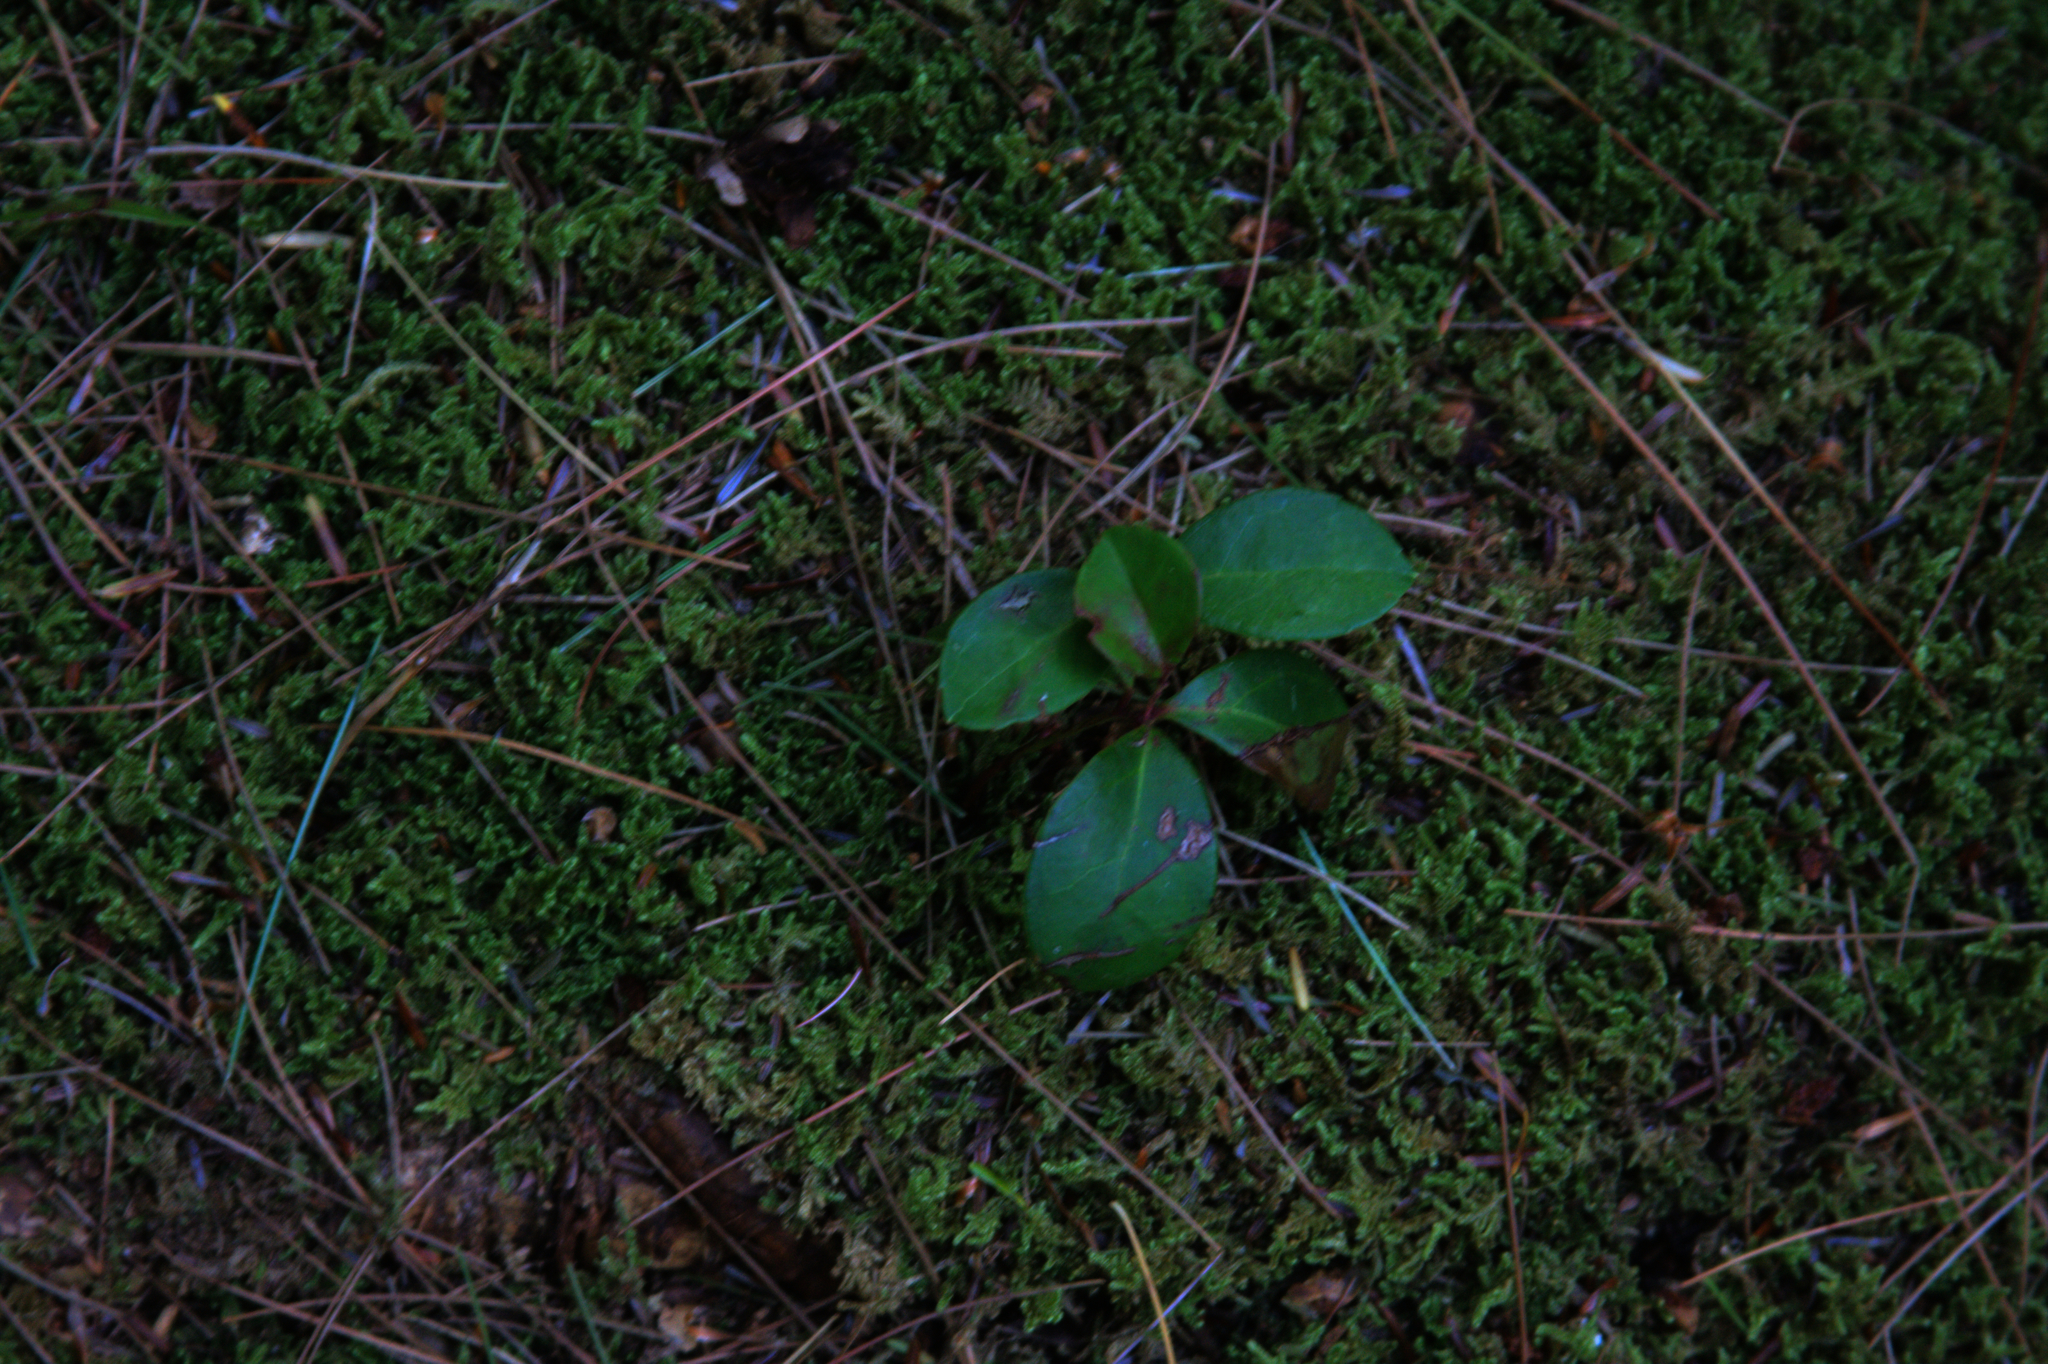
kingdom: Plantae
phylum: Tracheophyta
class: Magnoliopsida
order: Ericales
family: Ericaceae
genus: Gaultheria
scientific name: Gaultheria procumbens
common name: Checkerberry
